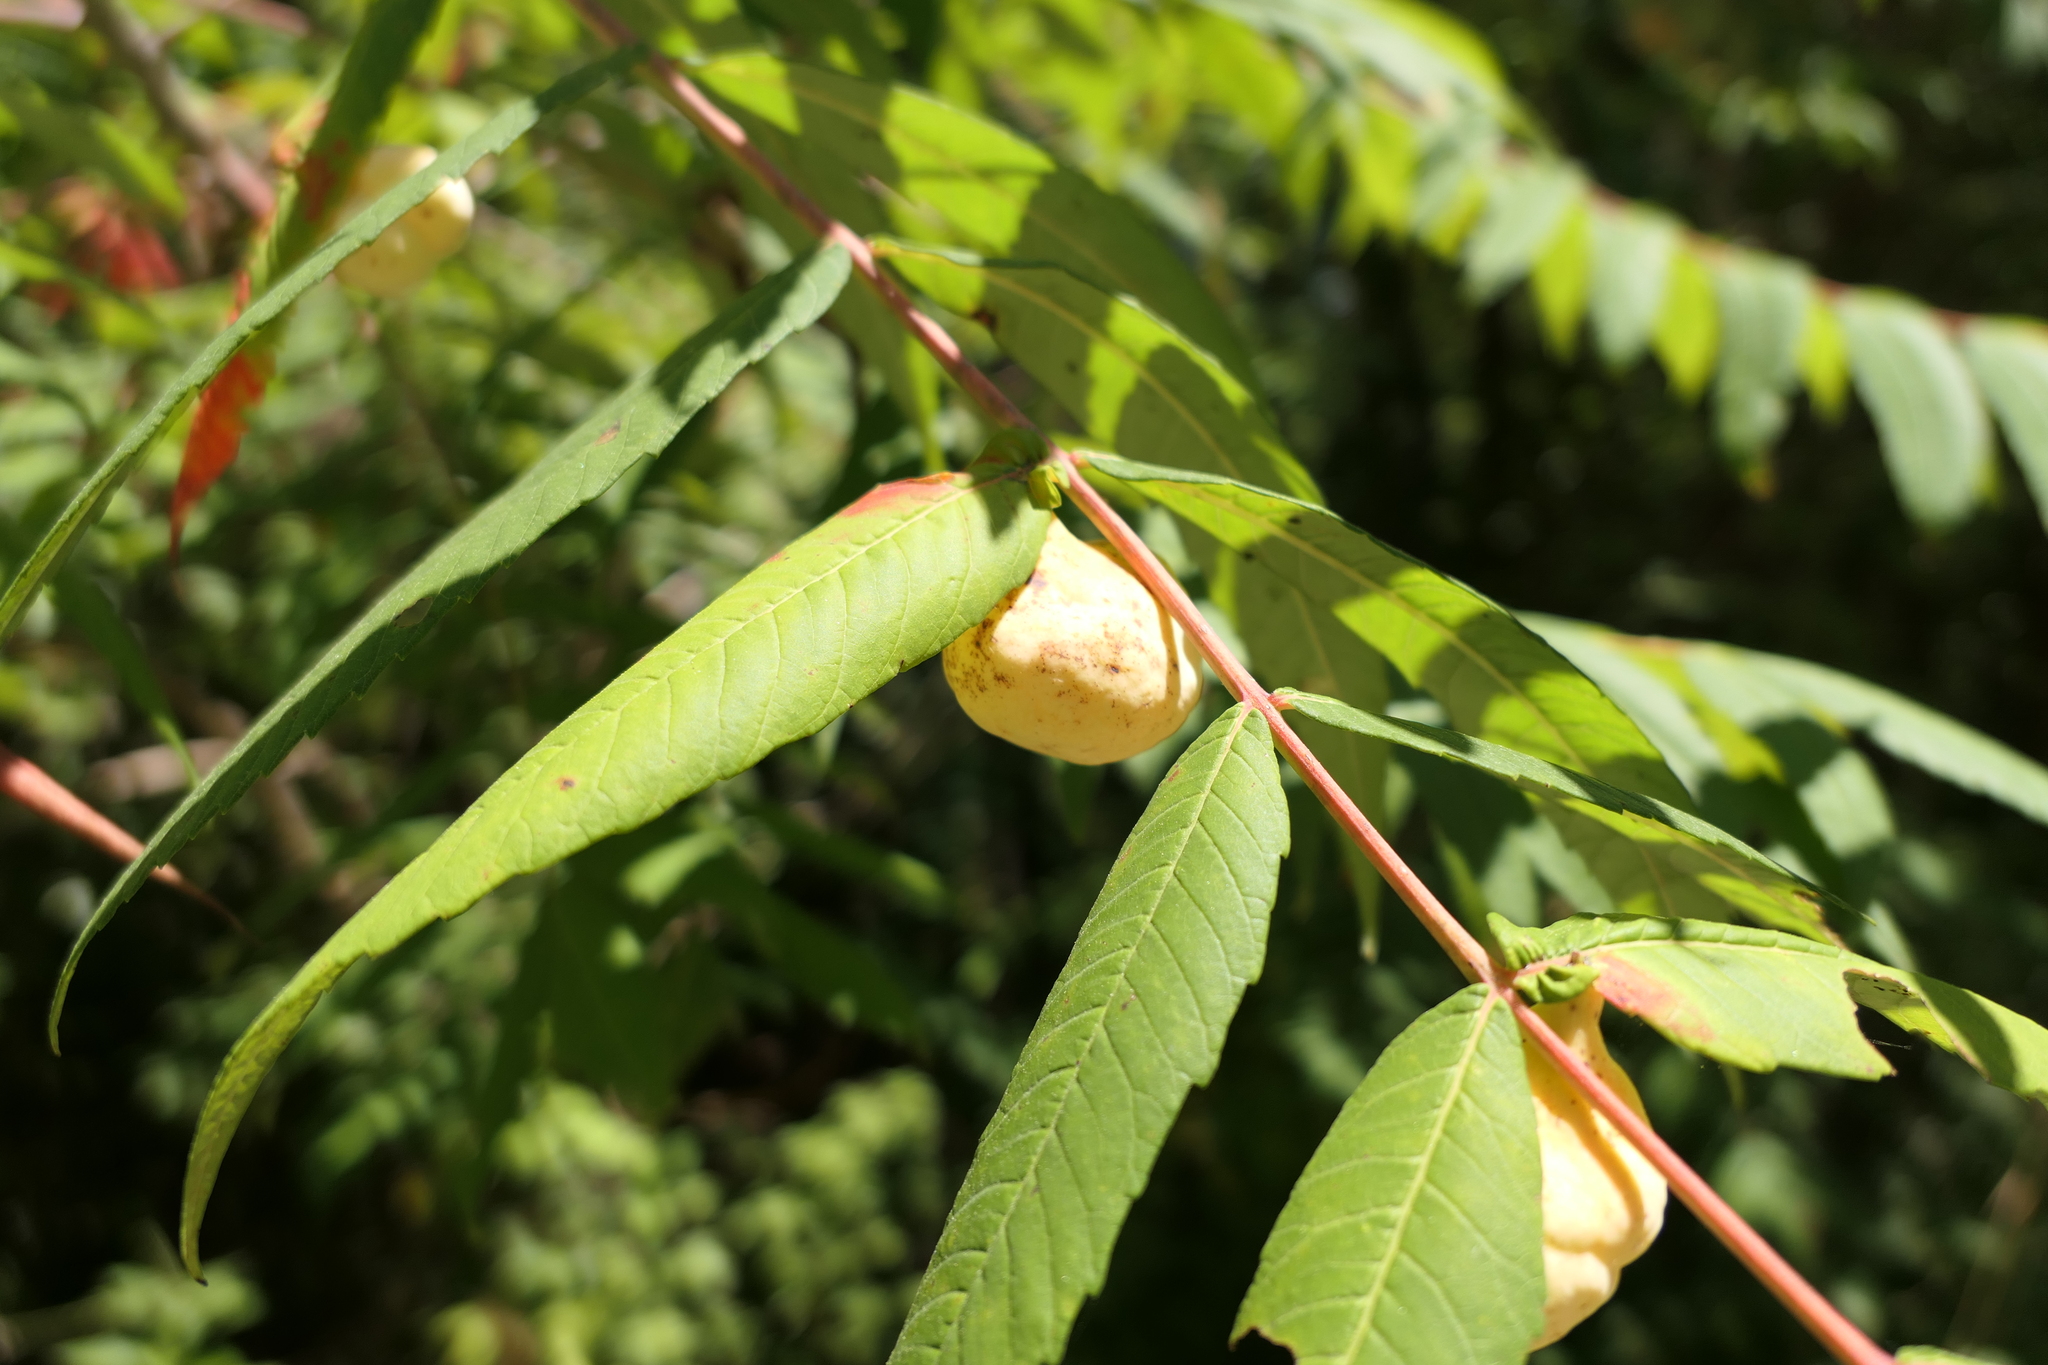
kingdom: Animalia
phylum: Arthropoda
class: Insecta
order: Hemiptera
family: Aphididae
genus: Melaphis
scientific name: Melaphis rhois
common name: Sumac gall aphid
